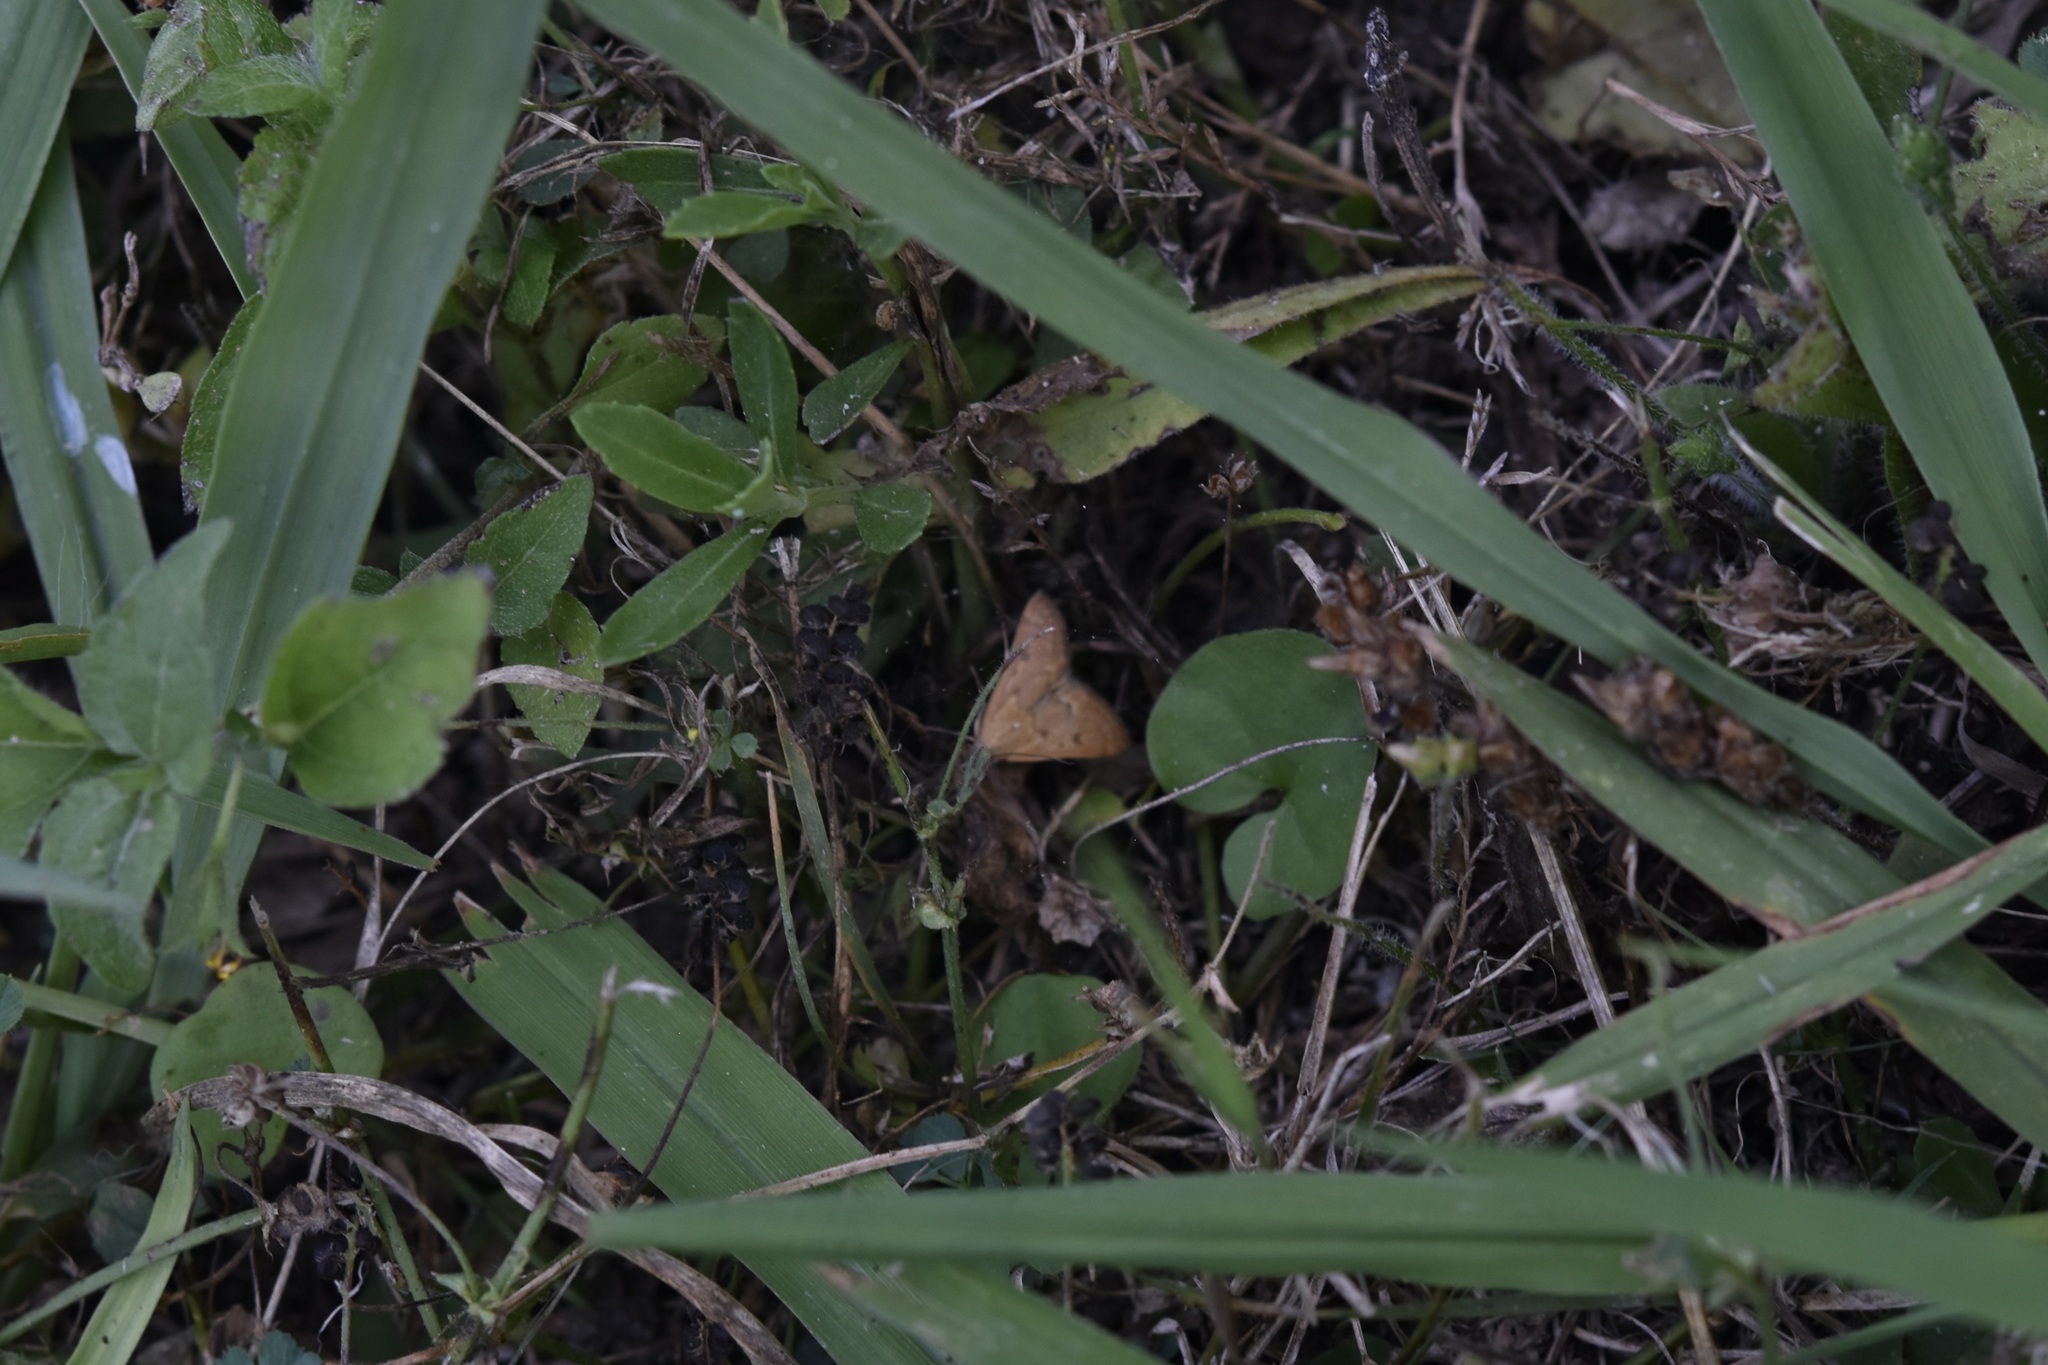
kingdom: Animalia
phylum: Arthropoda
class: Insecta
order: Lepidoptera
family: Crambidae
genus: Achyra
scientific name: Achyra rantalis
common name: Garden webworm
